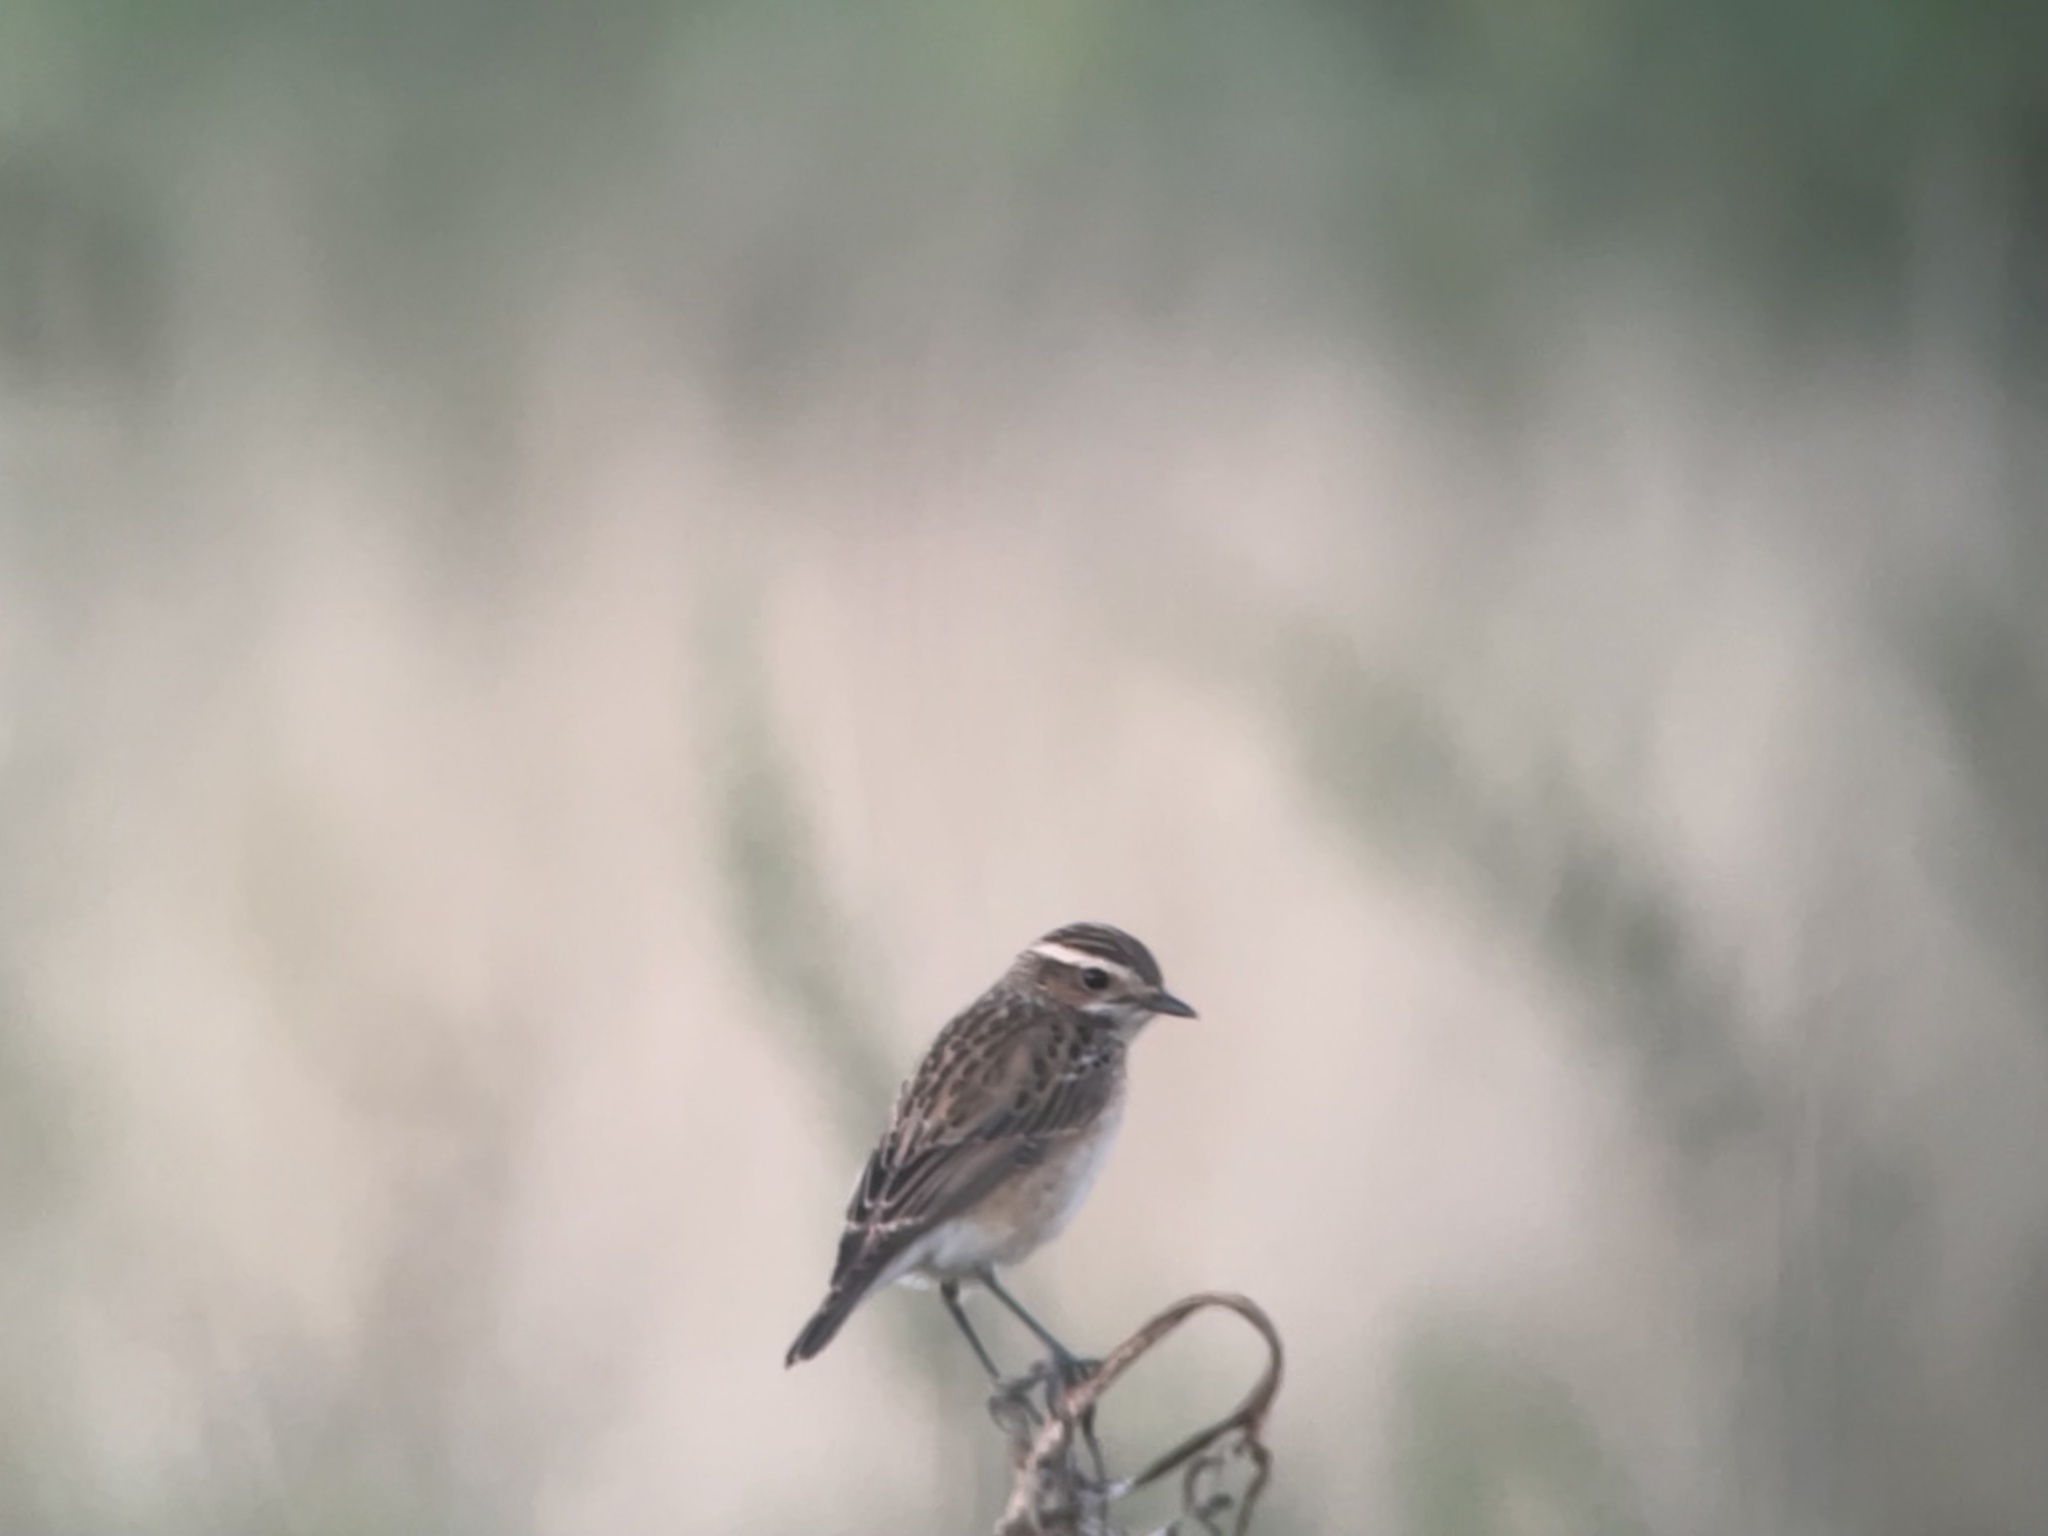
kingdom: Animalia
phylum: Chordata
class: Aves
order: Passeriformes
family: Muscicapidae
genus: Saxicola
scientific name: Saxicola rubetra
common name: Whinchat
